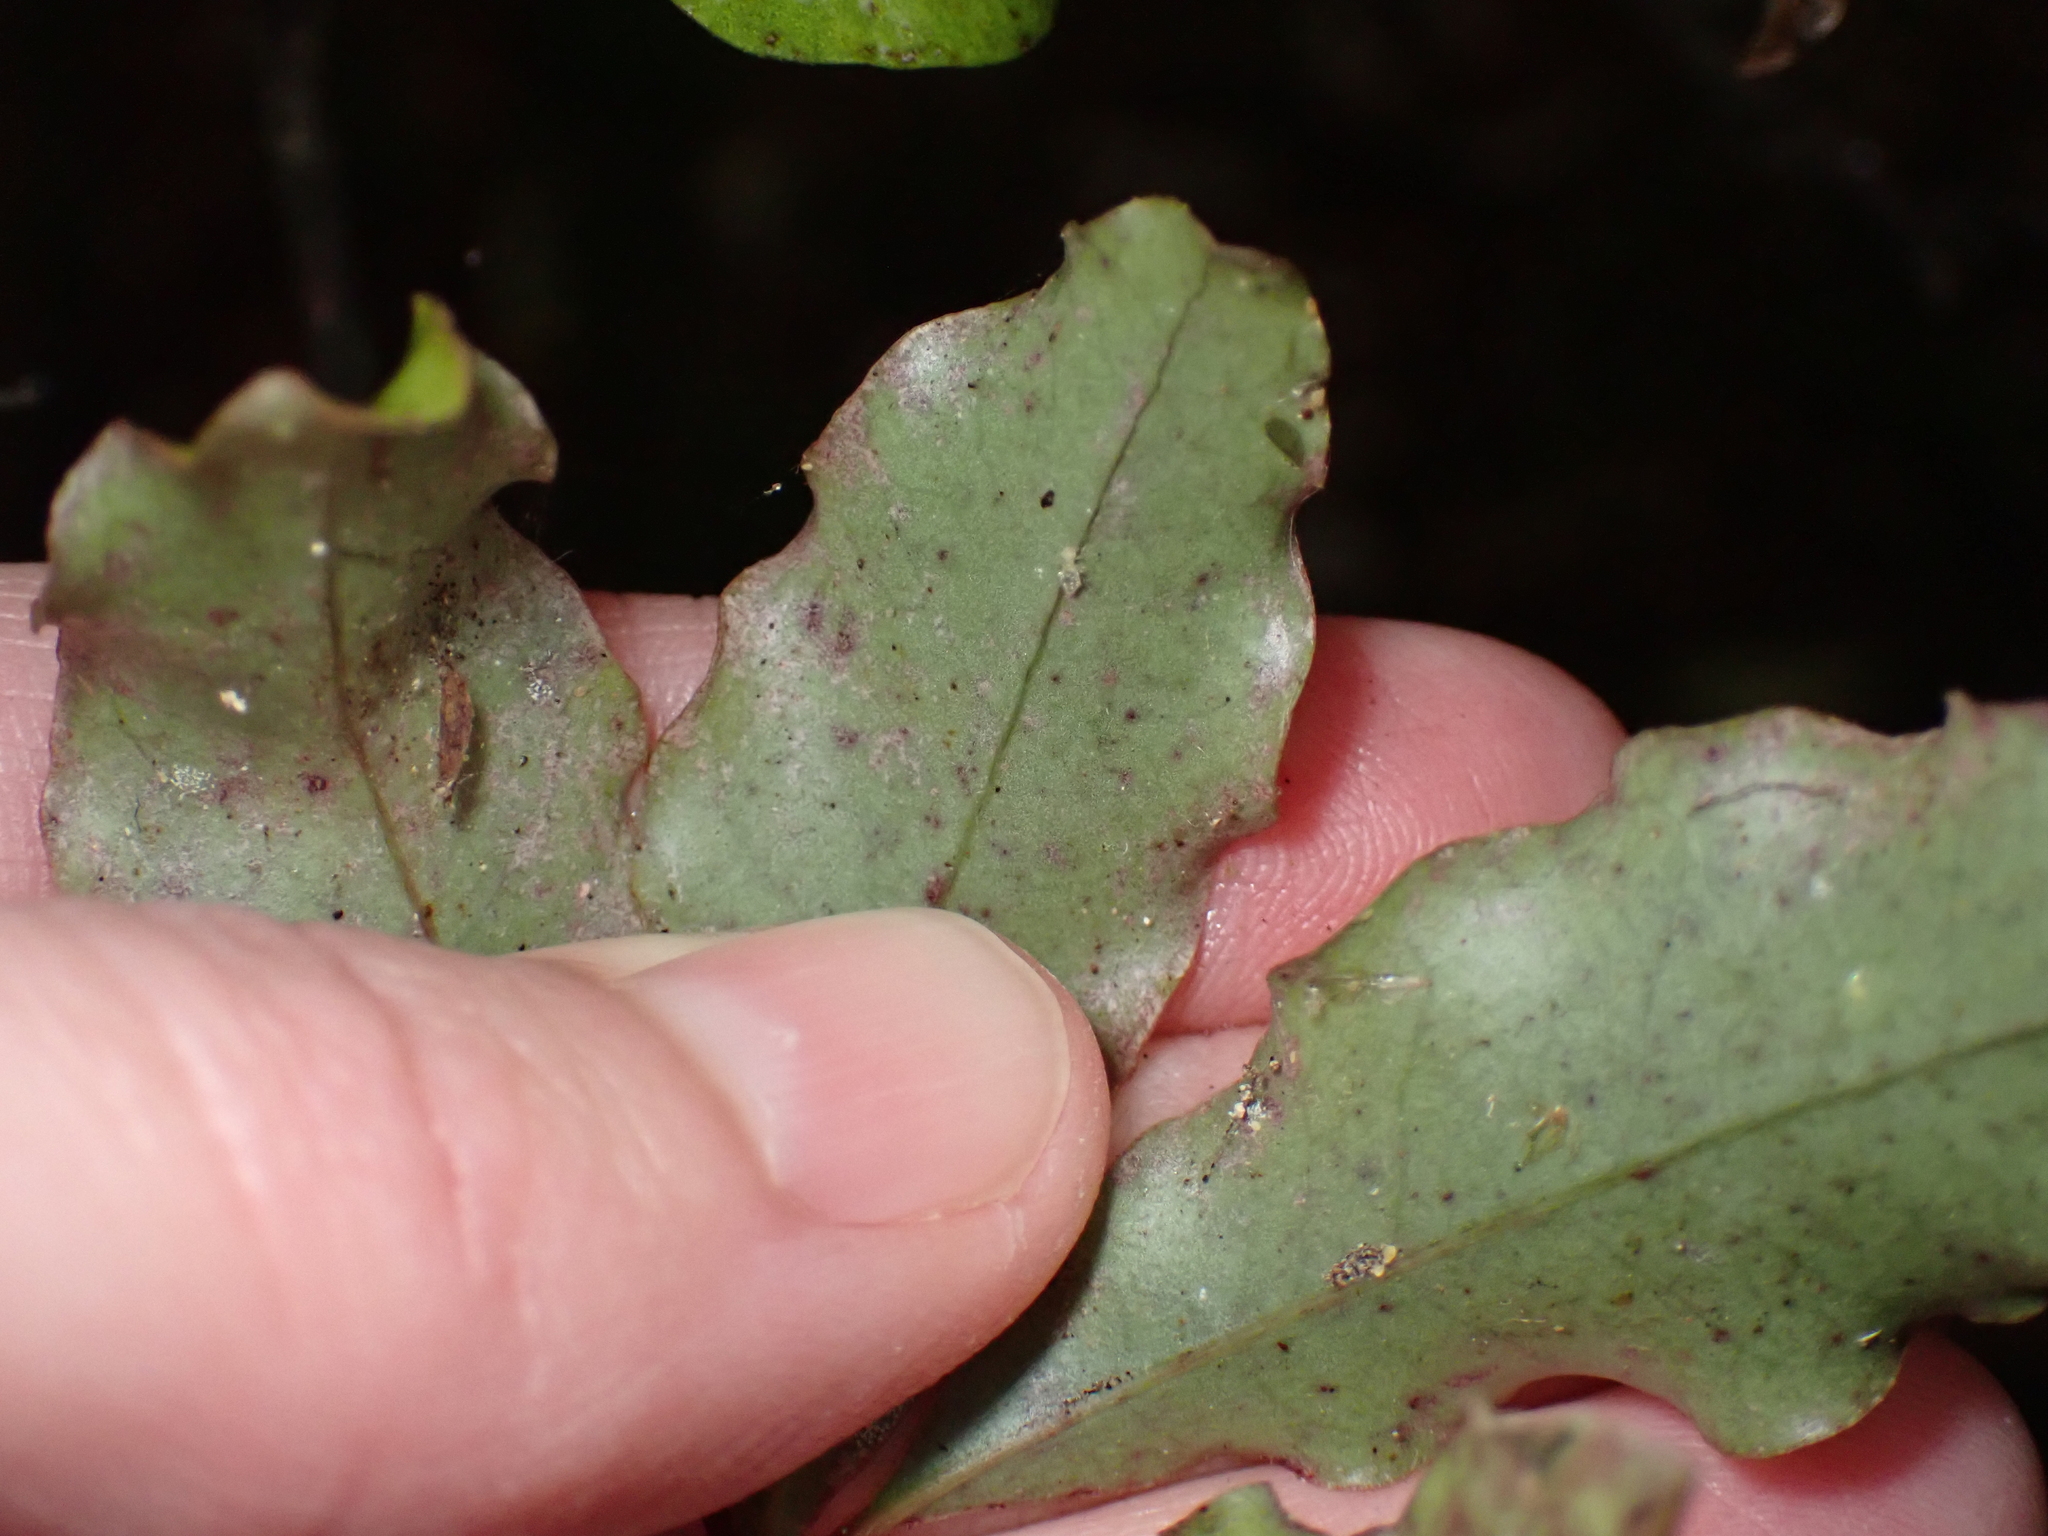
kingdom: Plantae
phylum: Tracheophyta
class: Magnoliopsida
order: Ericales
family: Primulaceae
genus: Myrsine
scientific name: Myrsine australis
